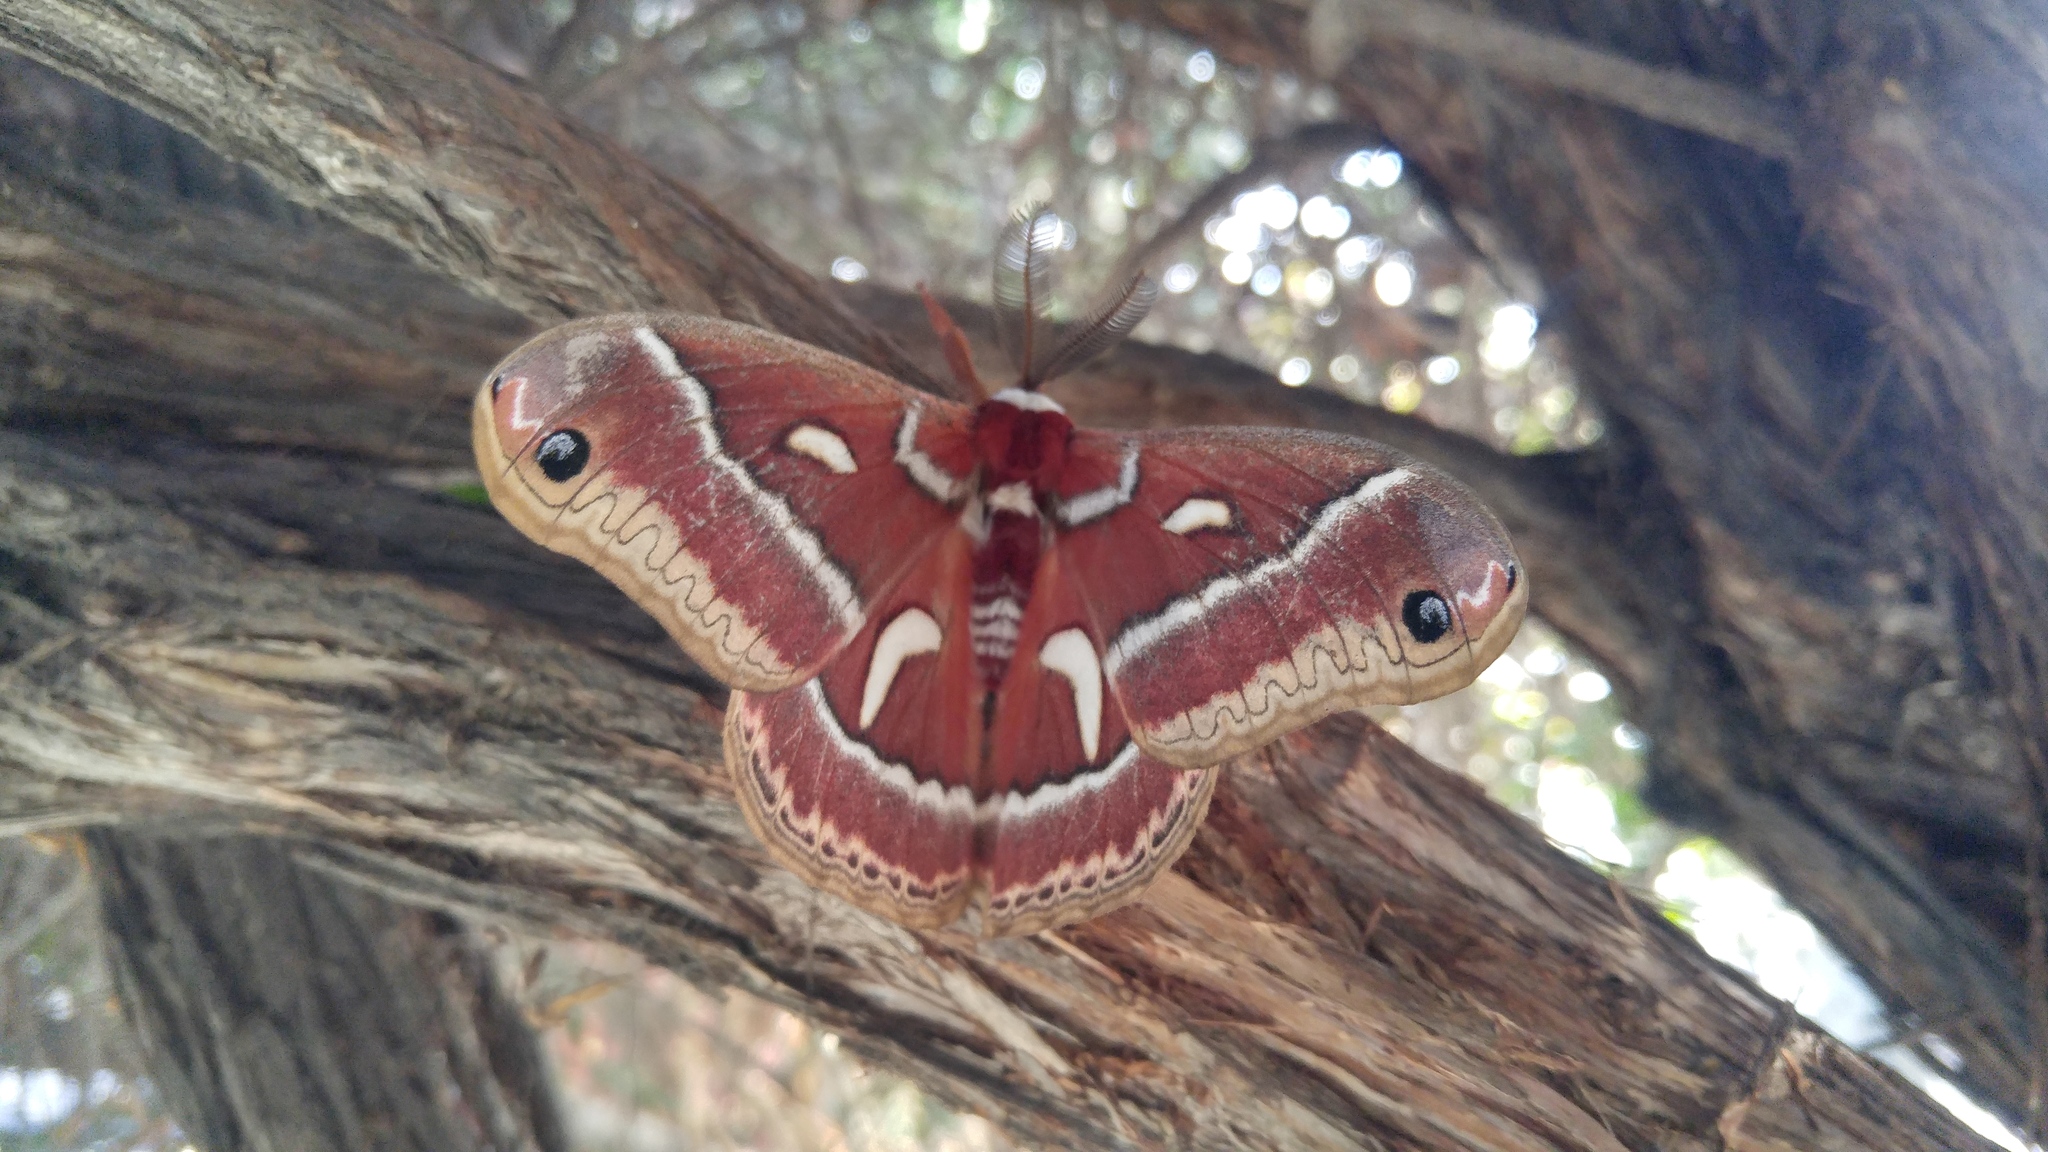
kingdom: Animalia
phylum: Arthropoda
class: Insecta
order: Lepidoptera
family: Saturniidae
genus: Hyalophora
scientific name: Hyalophora euryalus
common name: Ceanothus silkmoth
